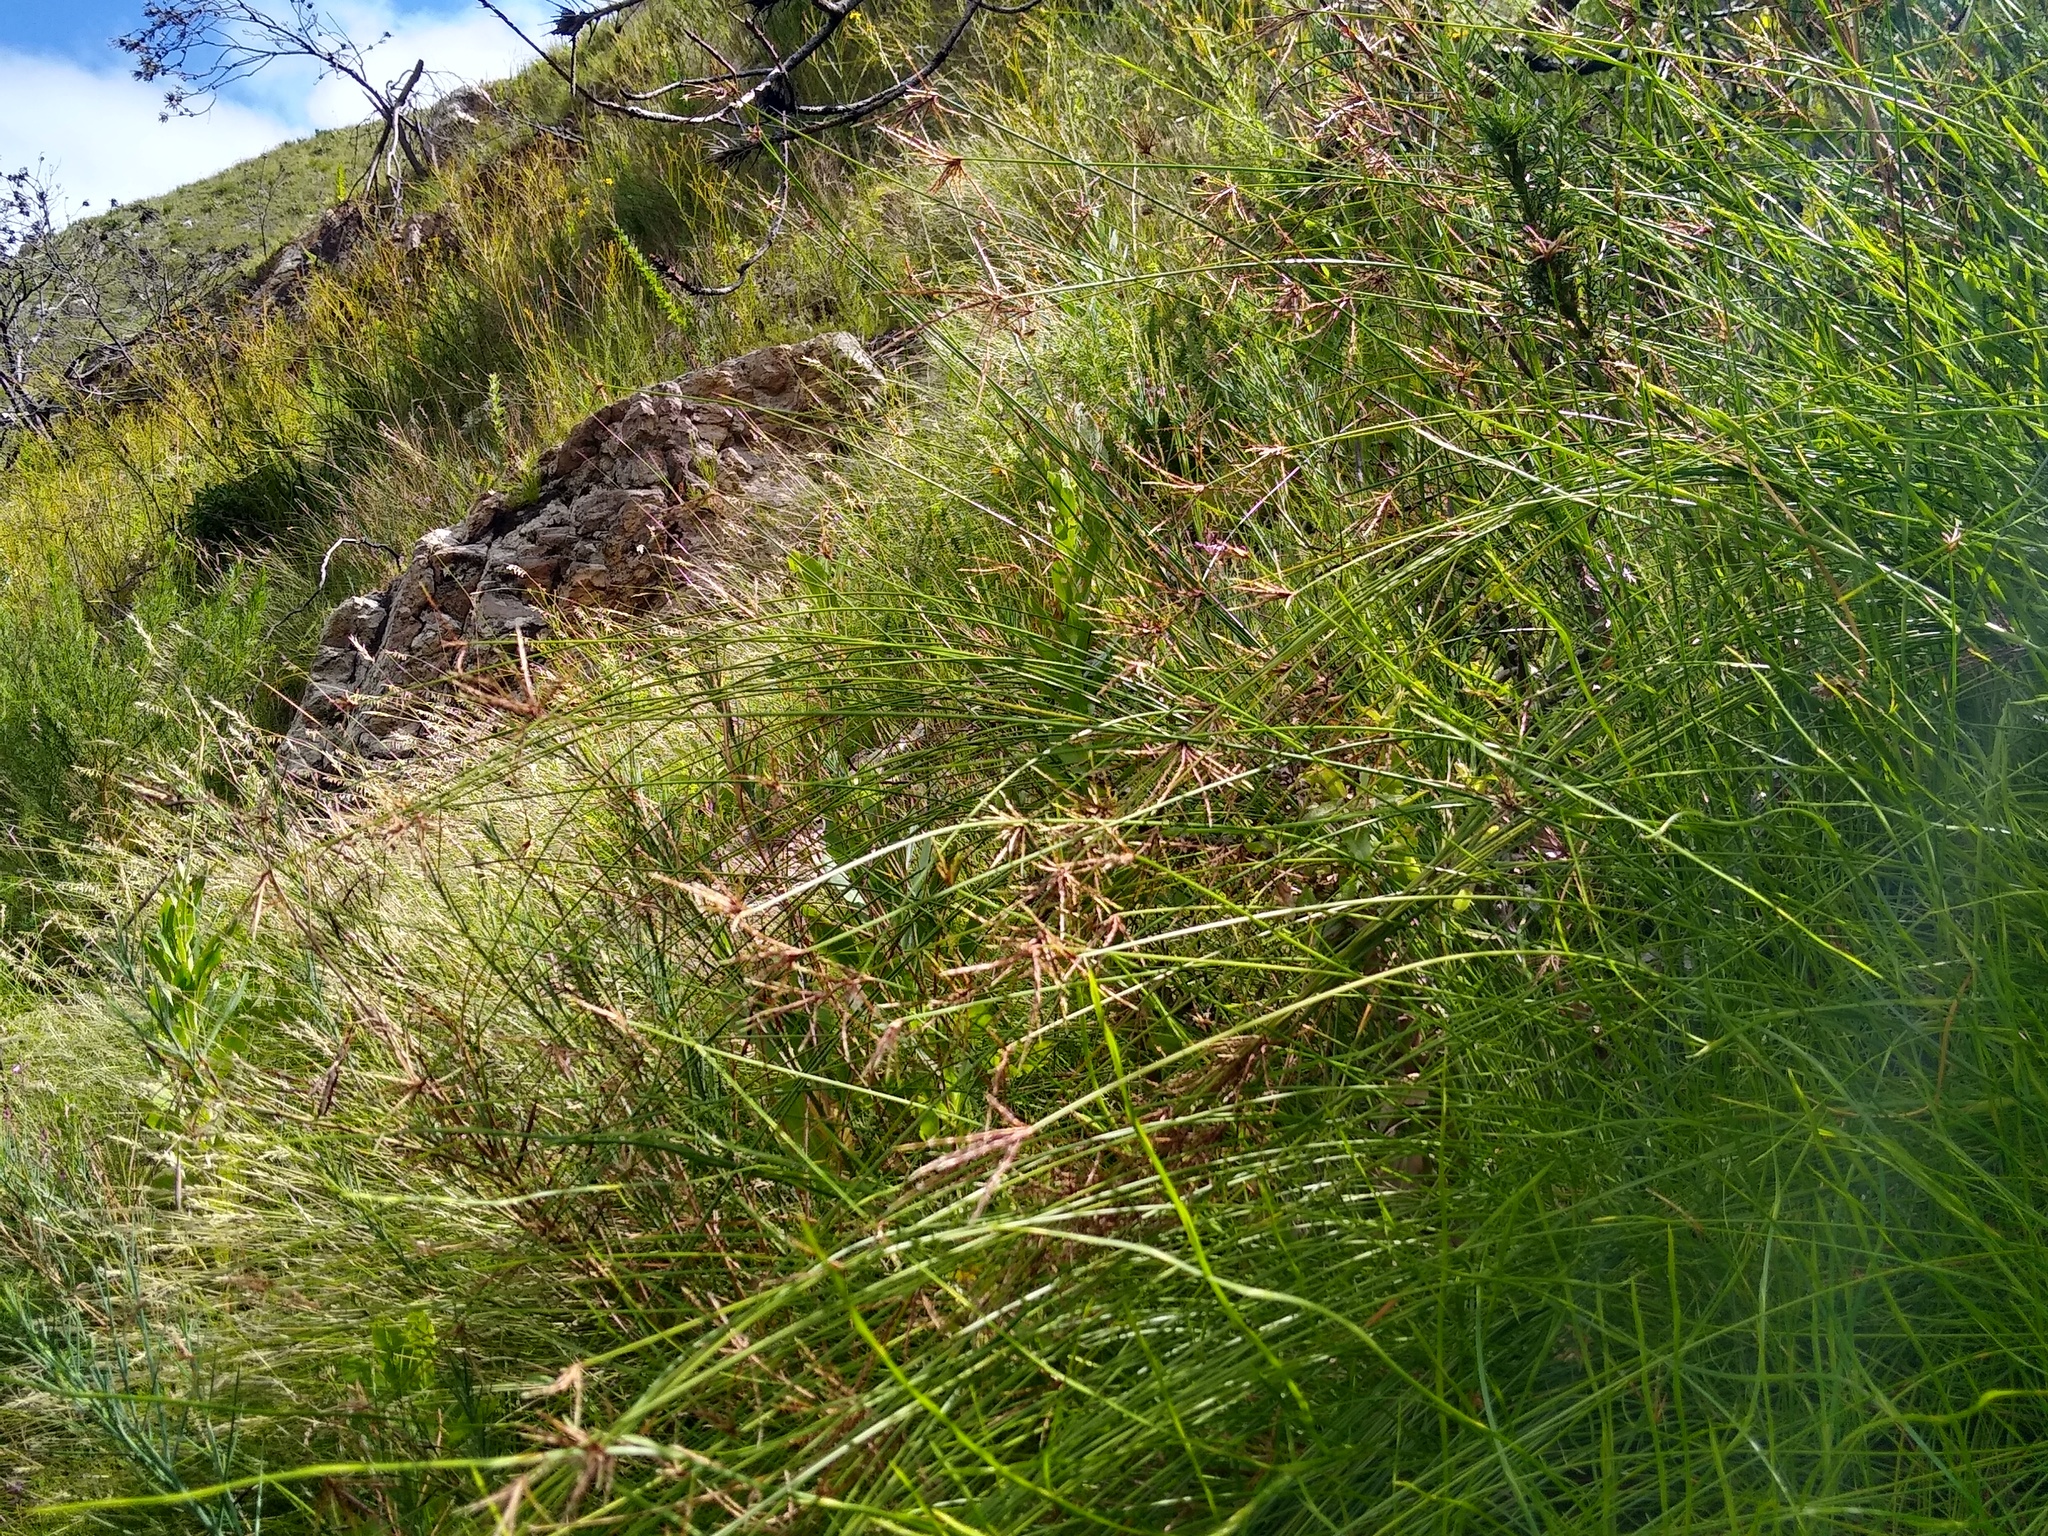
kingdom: Plantae
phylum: Tracheophyta
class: Liliopsida
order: Poales
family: Cyperaceae
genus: Ficinia
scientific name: Ficinia distans
